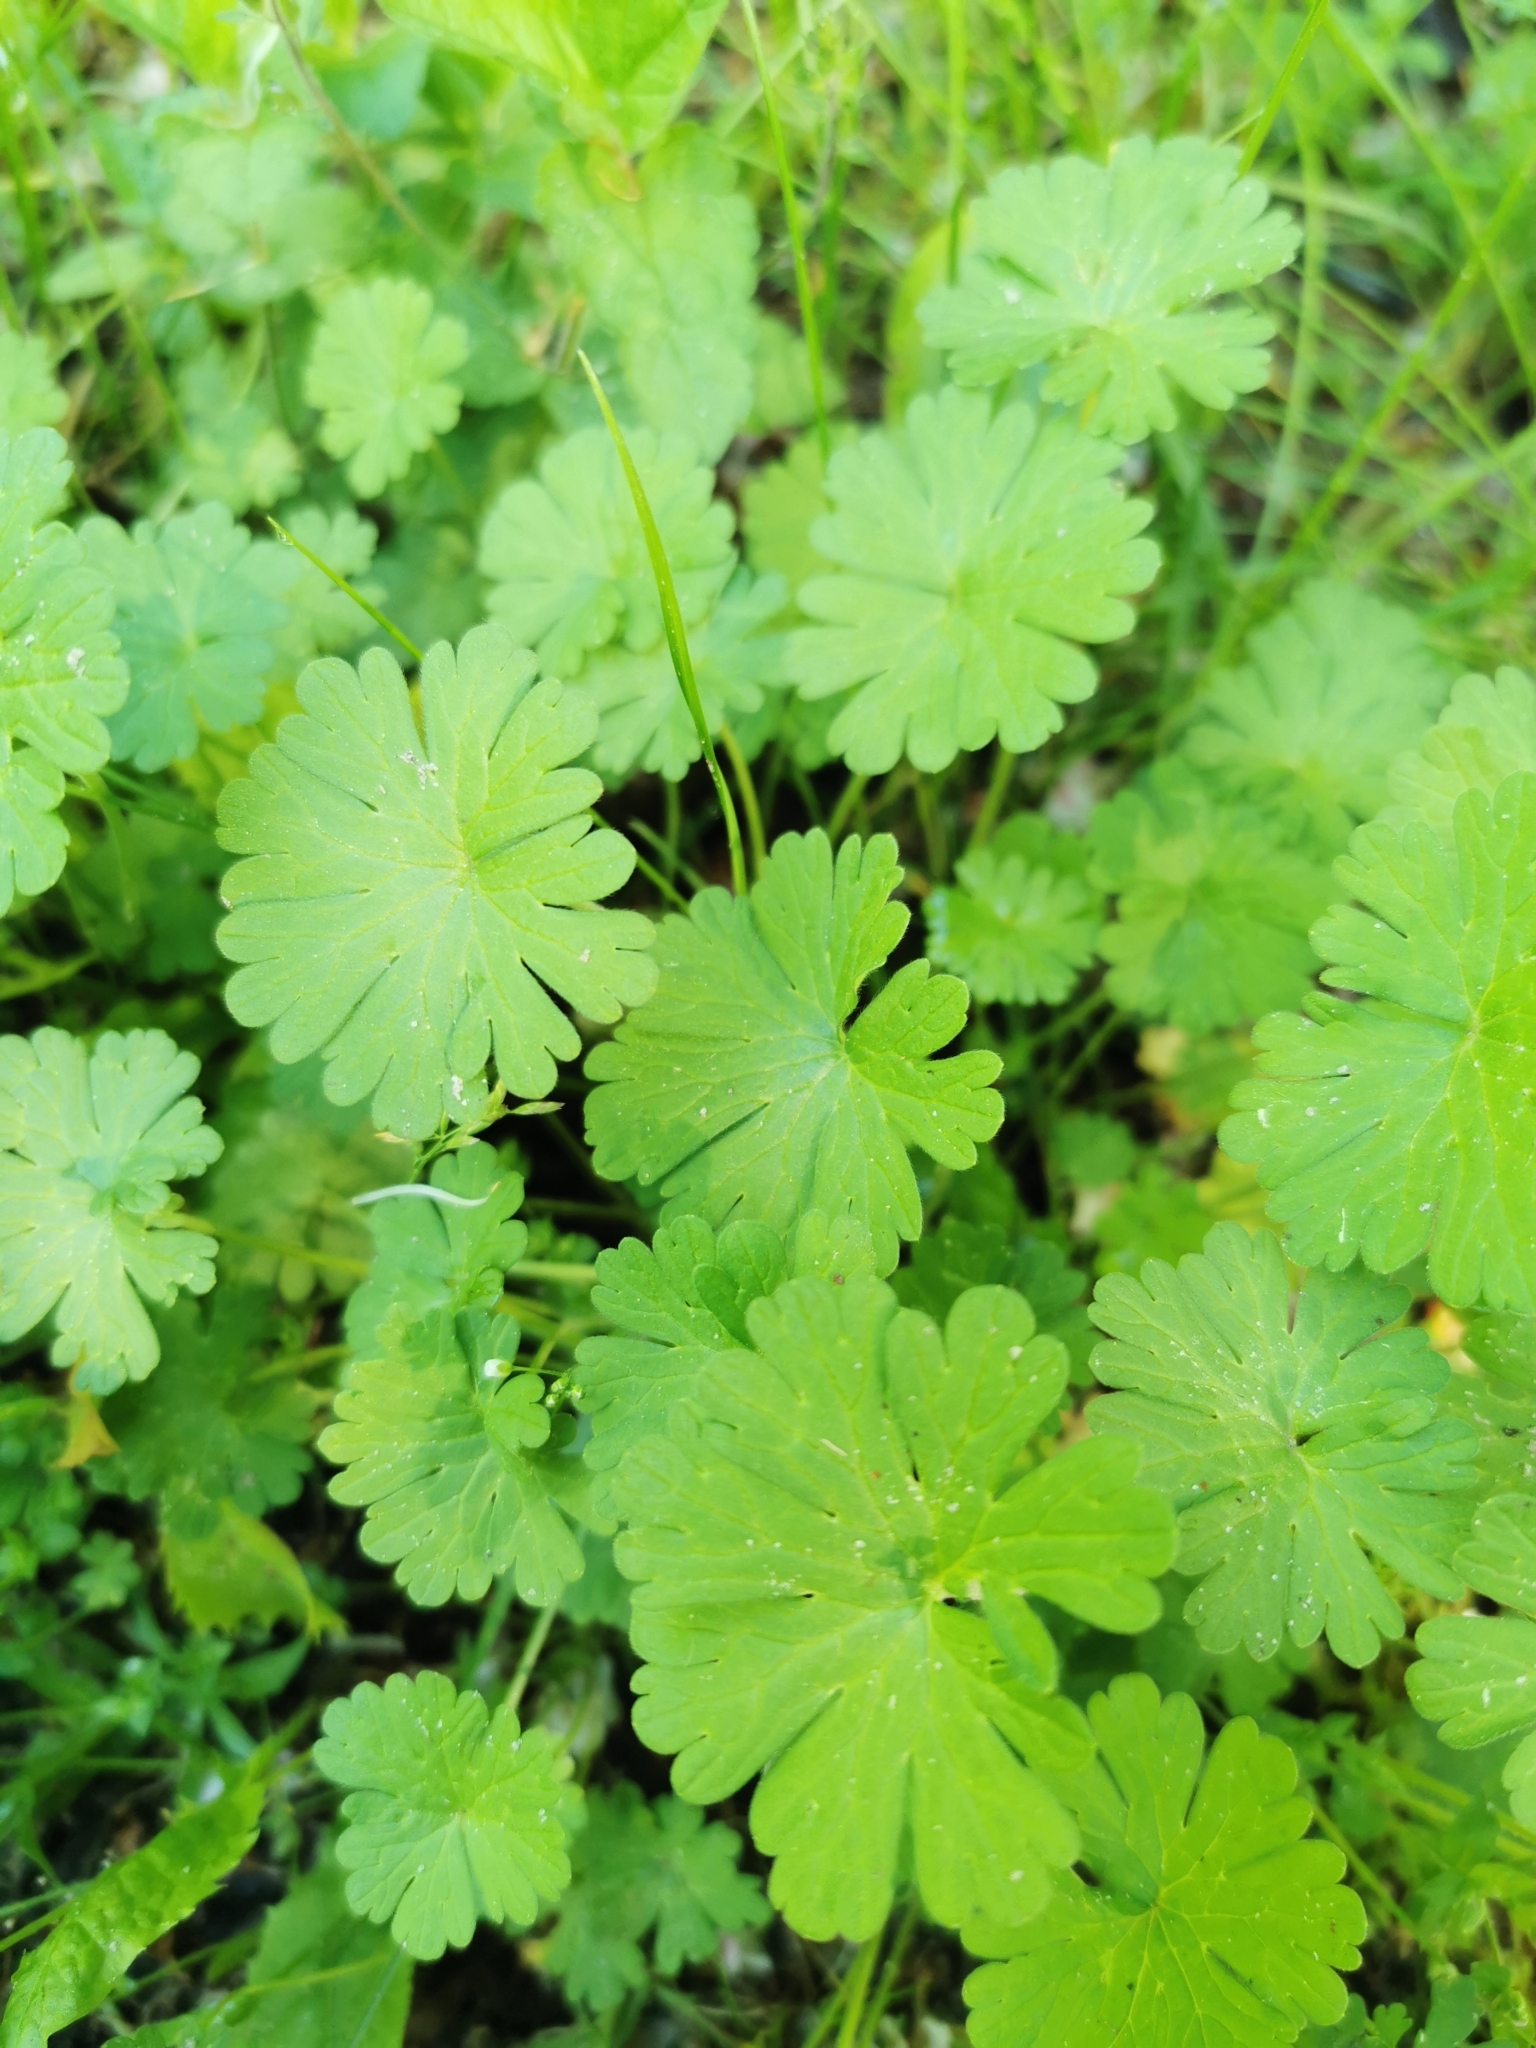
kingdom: Plantae
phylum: Tracheophyta
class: Magnoliopsida
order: Geraniales
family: Geraniaceae
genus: Geranium
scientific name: Geranium pusillum
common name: Small geranium
